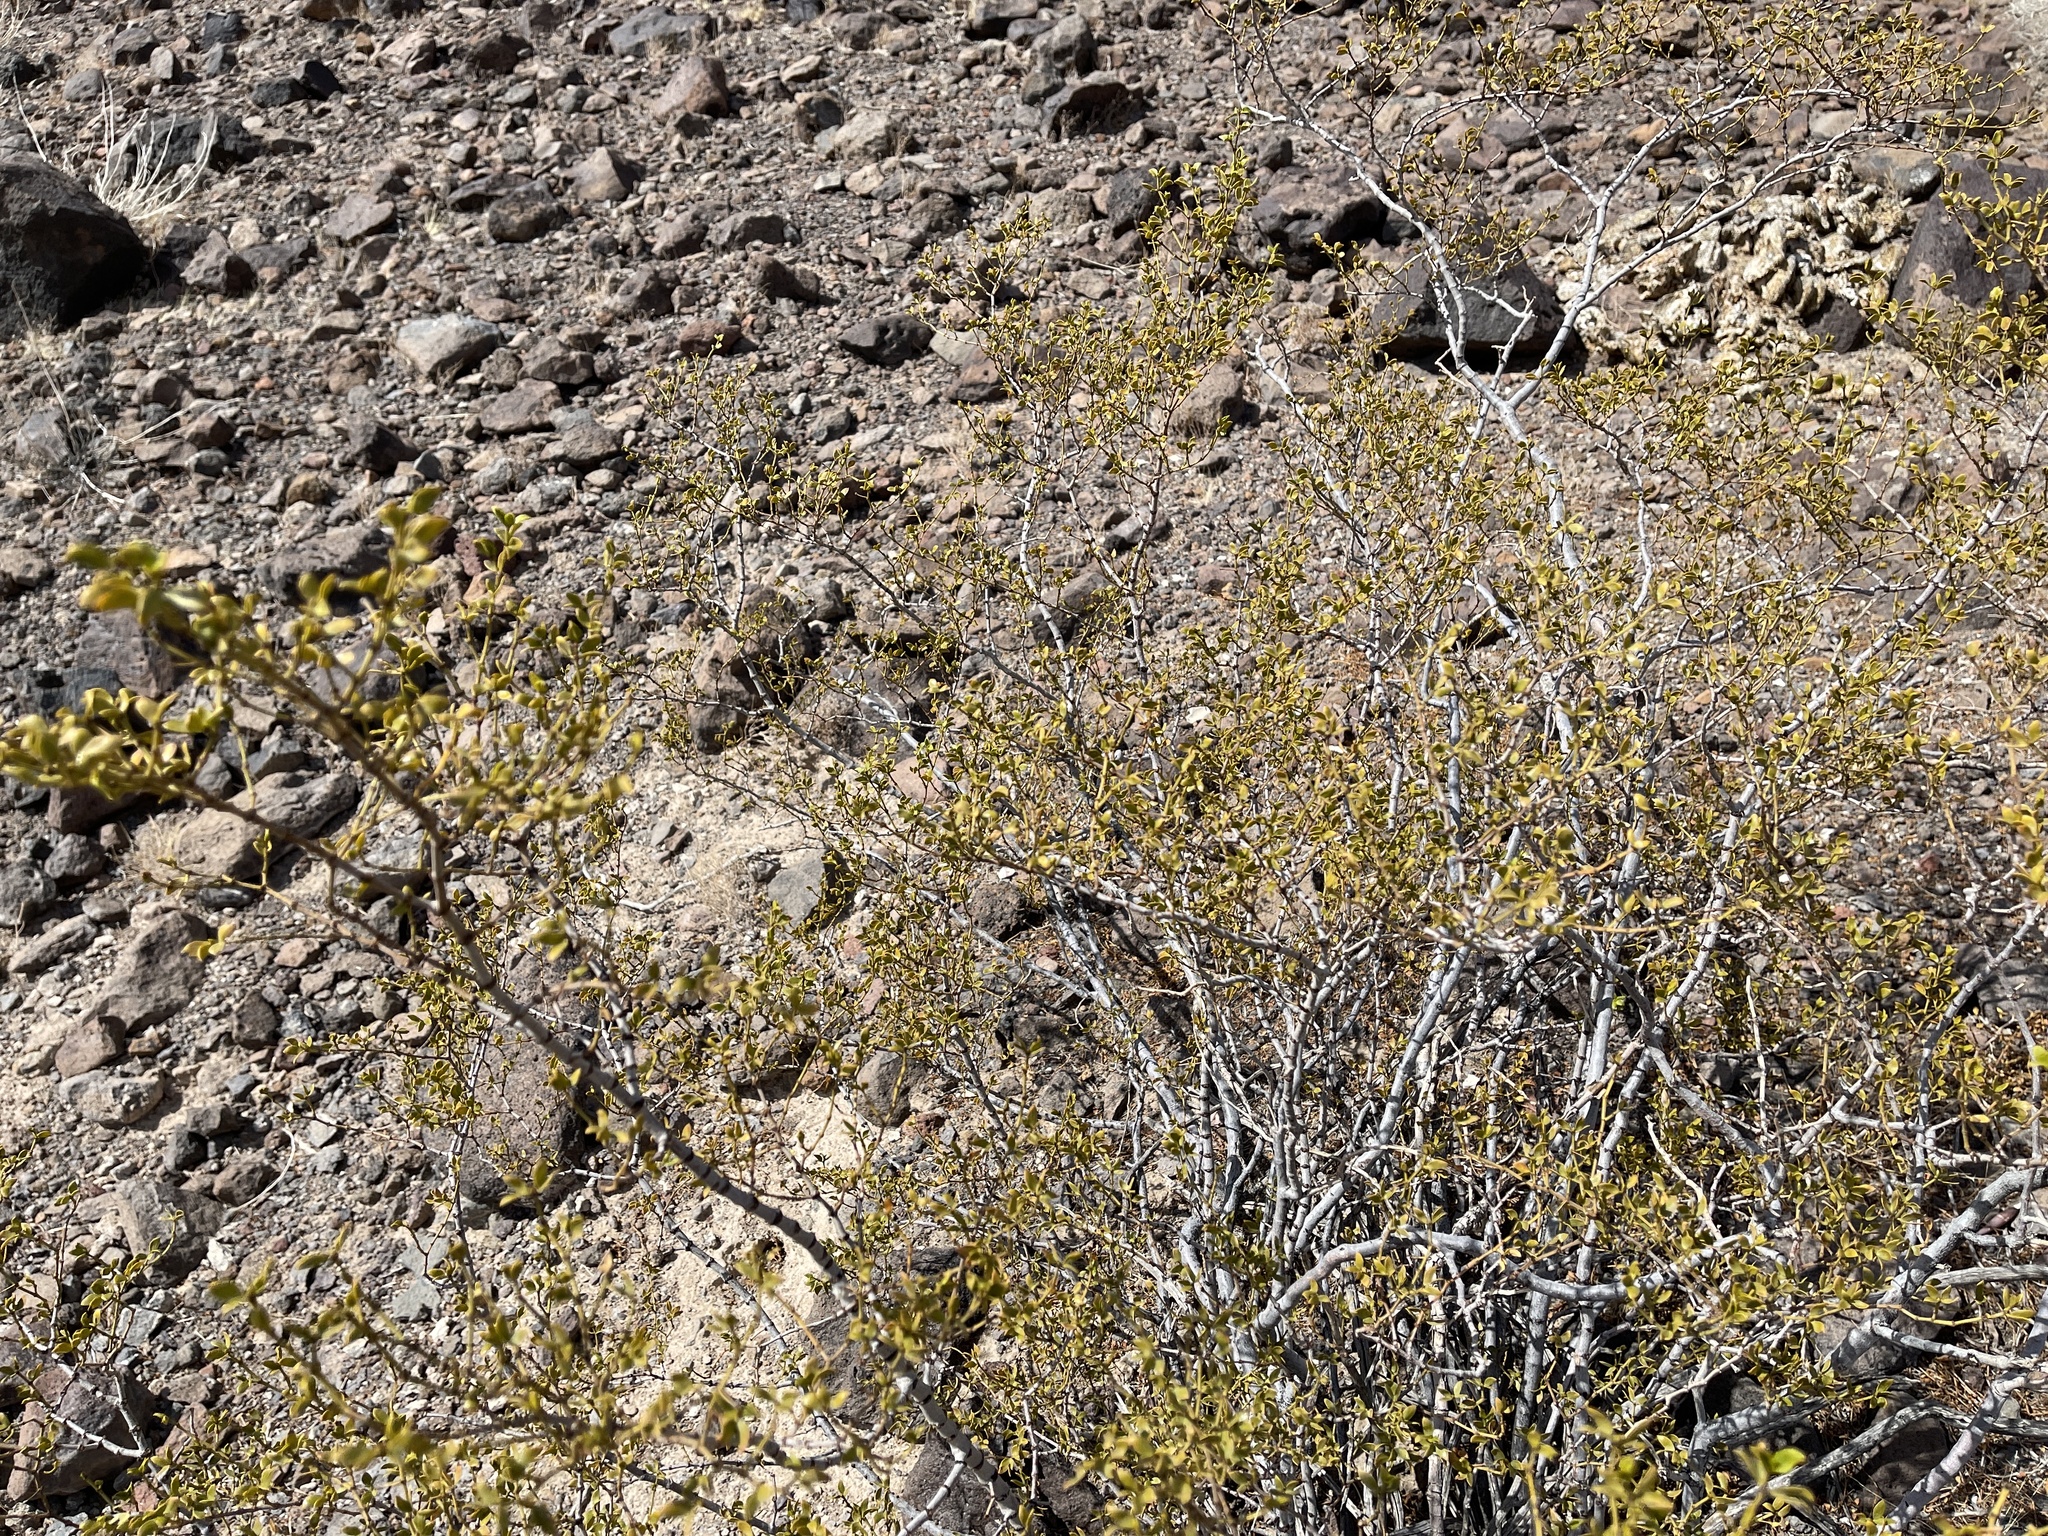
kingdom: Plantae
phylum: Tracheophyta
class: Magnoliopsida
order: Zygophyllales
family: Zygophyllaceae
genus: Larrea
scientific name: Larrea tridentata
